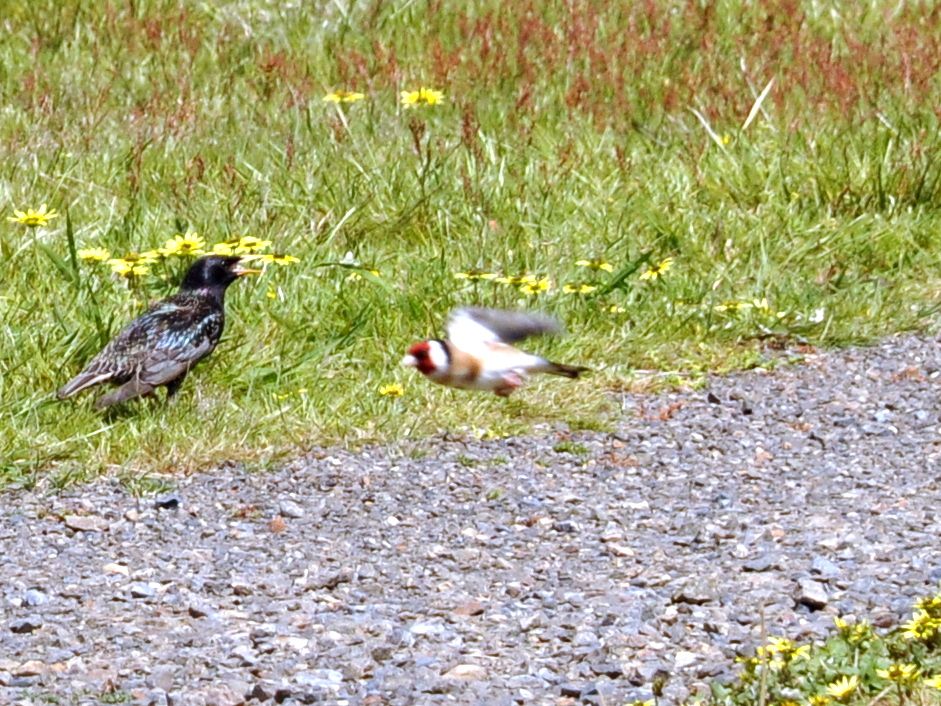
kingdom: Animalia
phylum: Chordata
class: Aves
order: Passeriformes
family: Fringillidae
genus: Carduelis
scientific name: Carduelis carduelis
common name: European goldfinch
